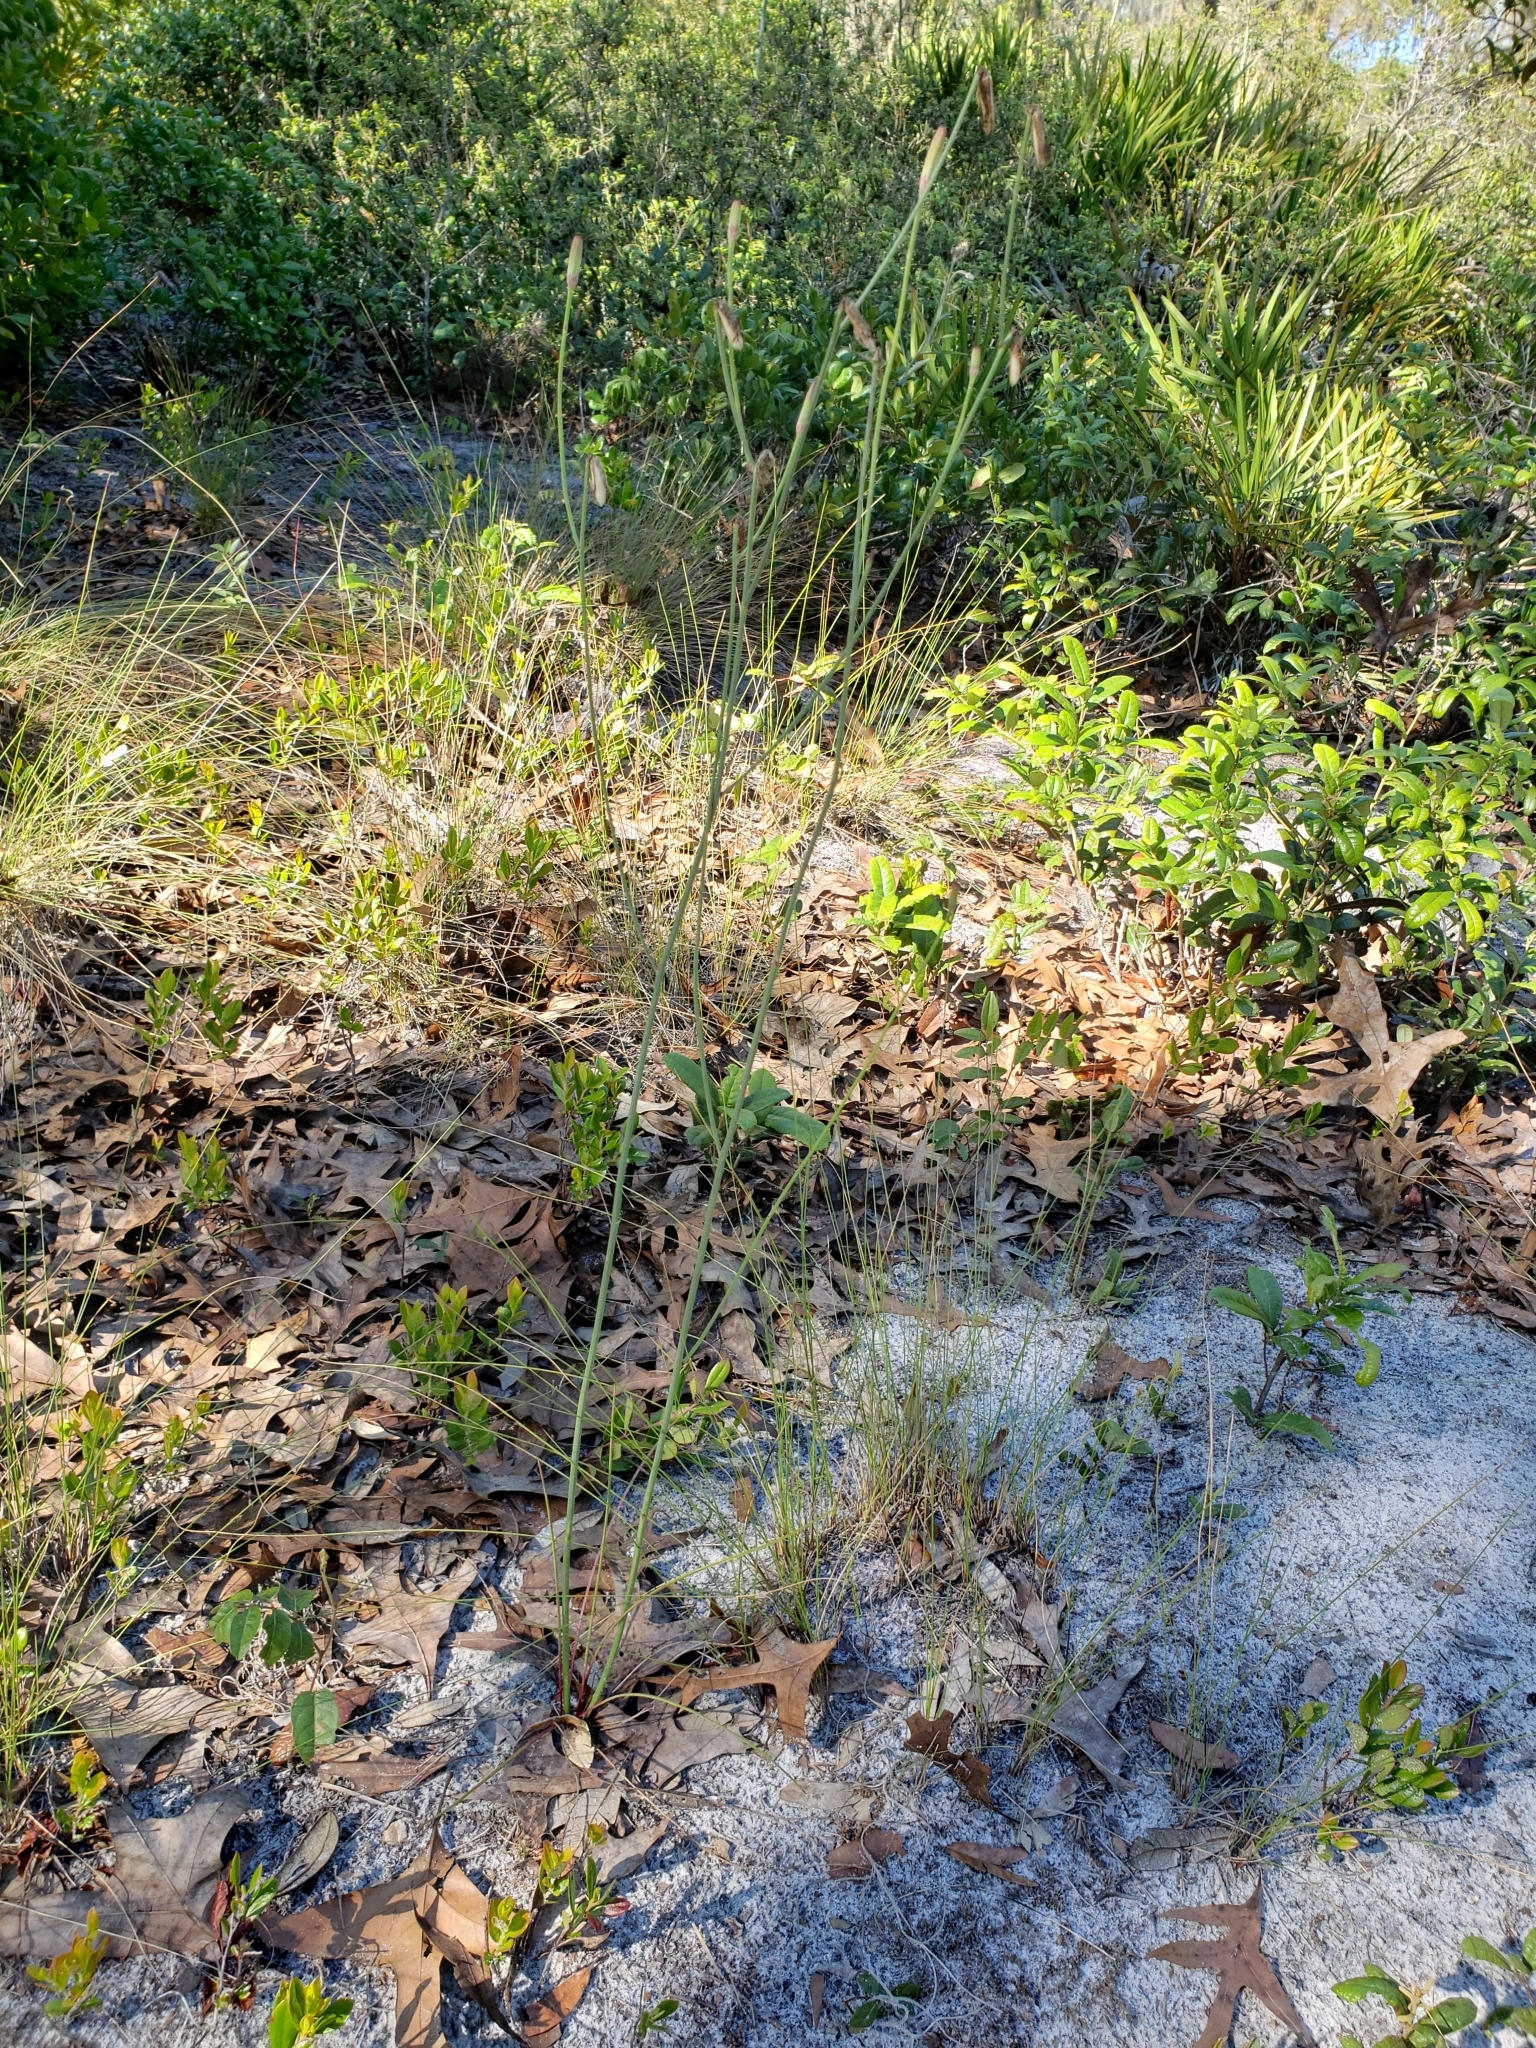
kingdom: Plantae
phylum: Tracheophyta
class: Magnoliopsida
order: Asterales
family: Asteraceae
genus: Lygodesmia
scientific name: Lygodesmia aphylla
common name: Rose-rush
